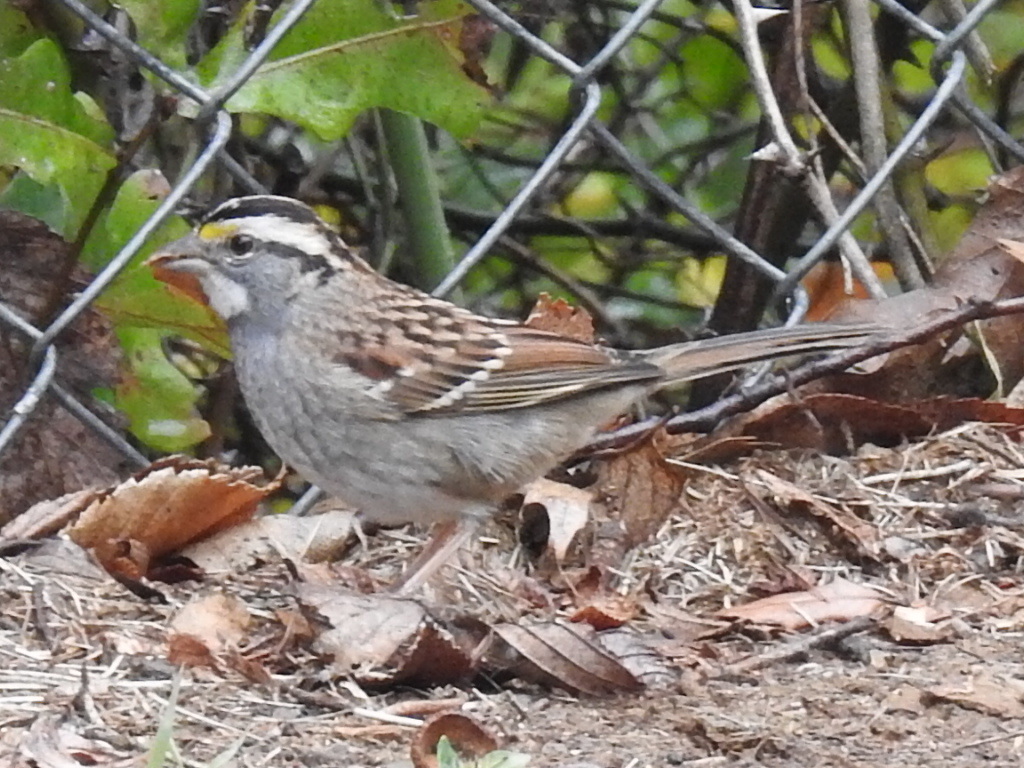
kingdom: Animalia
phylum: Chordata
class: Aves
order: Passeriformes
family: Passerellidae
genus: Zonotrichia
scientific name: Zonotrichia albicollis
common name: White-throated sparrow
